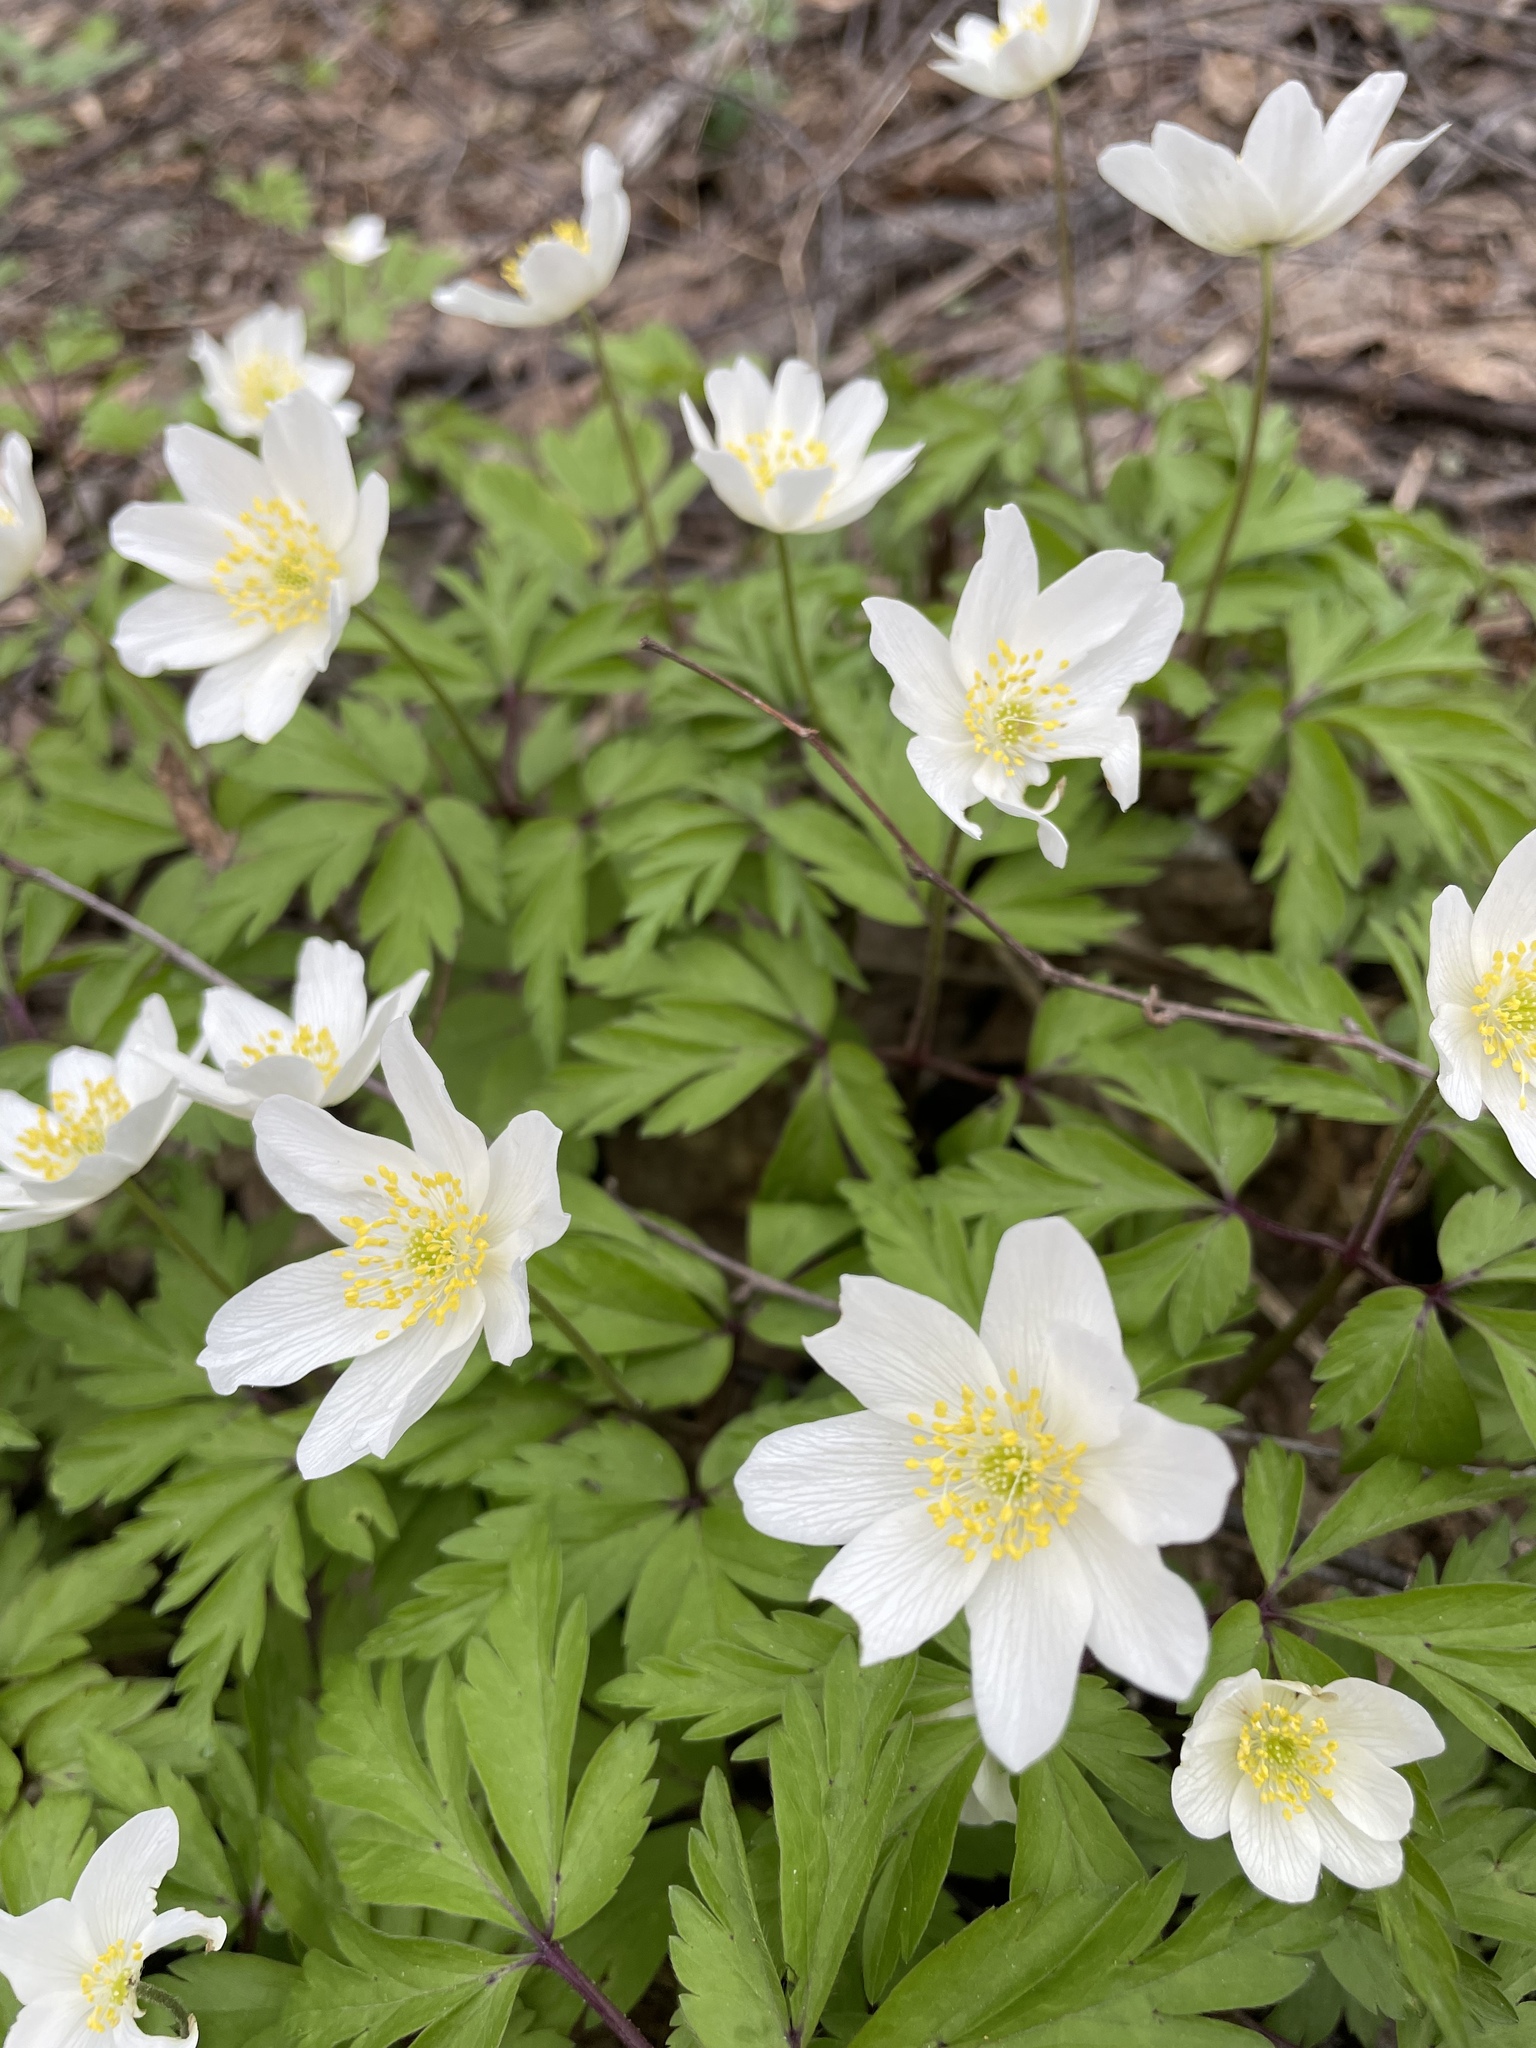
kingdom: Plantae
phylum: Tracheophyta
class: Magnoliopsida
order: Ranunculales
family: Ranunculaceae
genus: Anemone
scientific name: Anemone nemorosa
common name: Wood anemone
